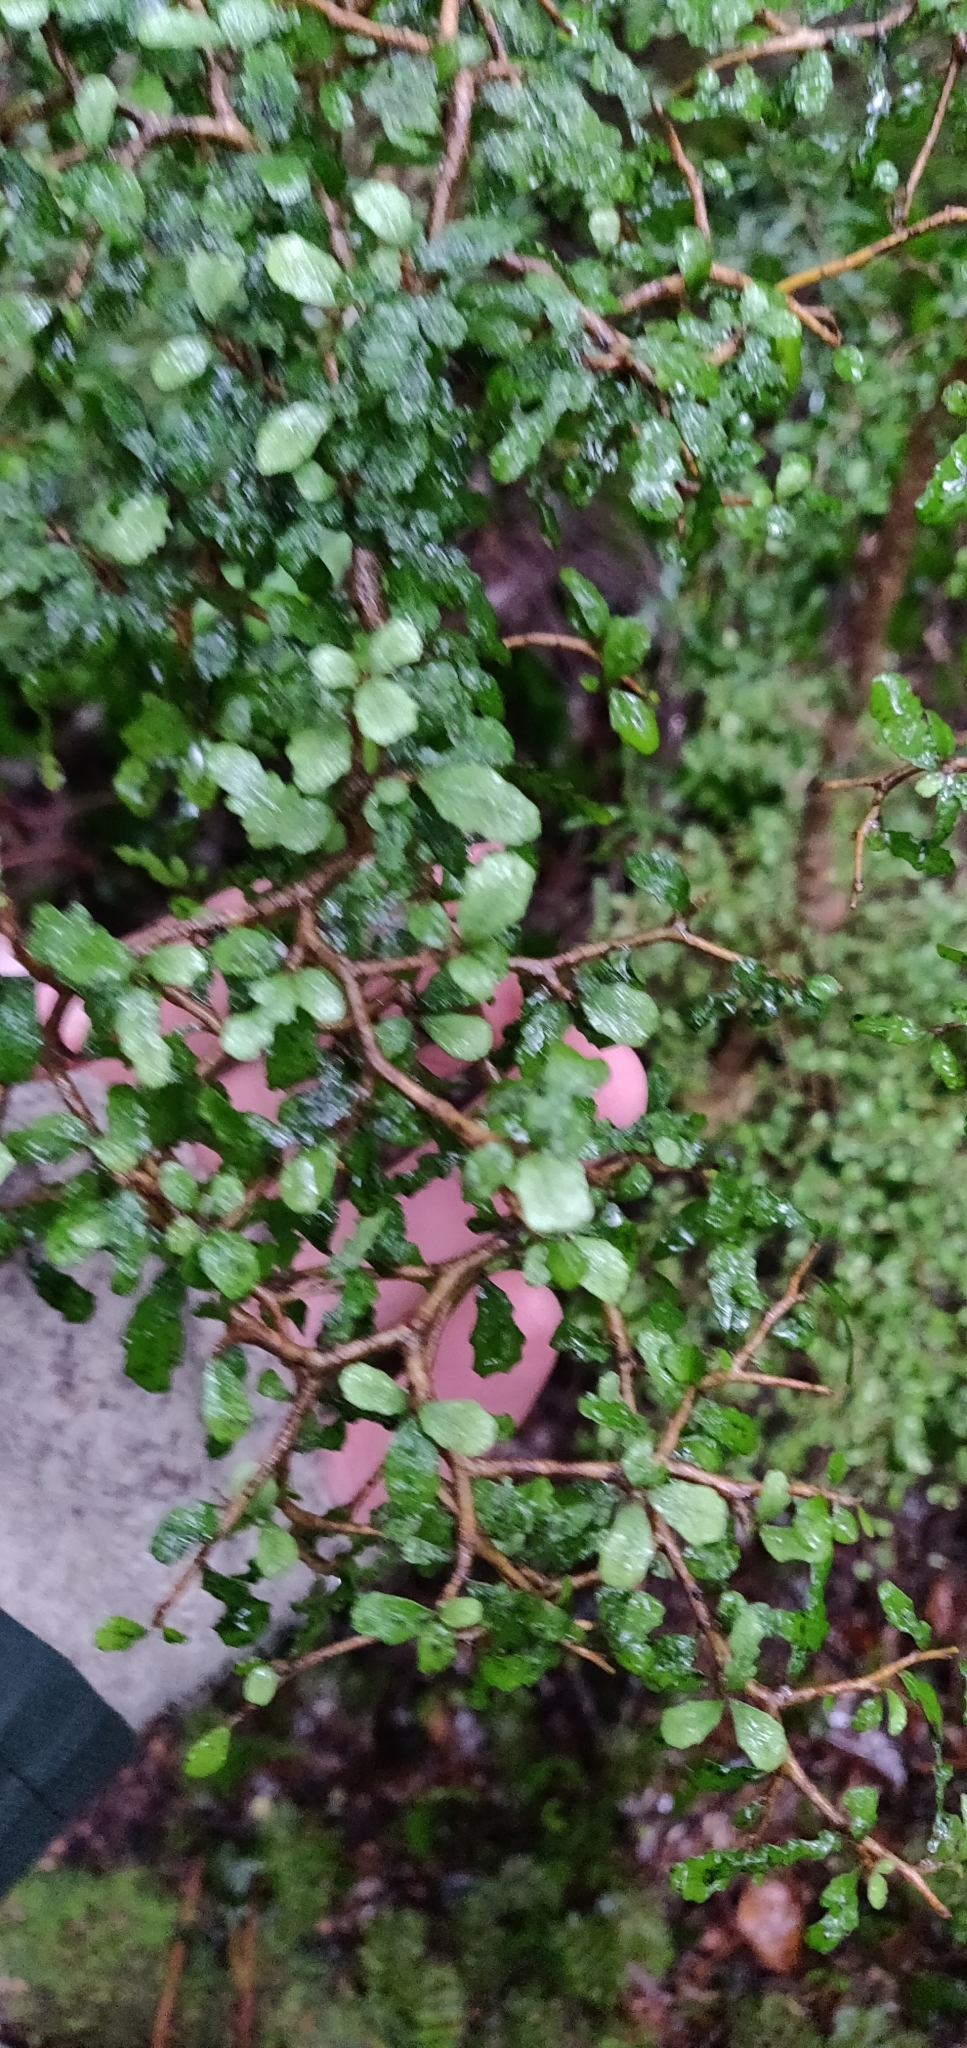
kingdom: Plantae
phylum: Tracheophyta
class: Magnoliopsida
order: Oxalidales
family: Elaeocarpaceae
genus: Elaeocarpus
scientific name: Elaeocarpus hookerianus
